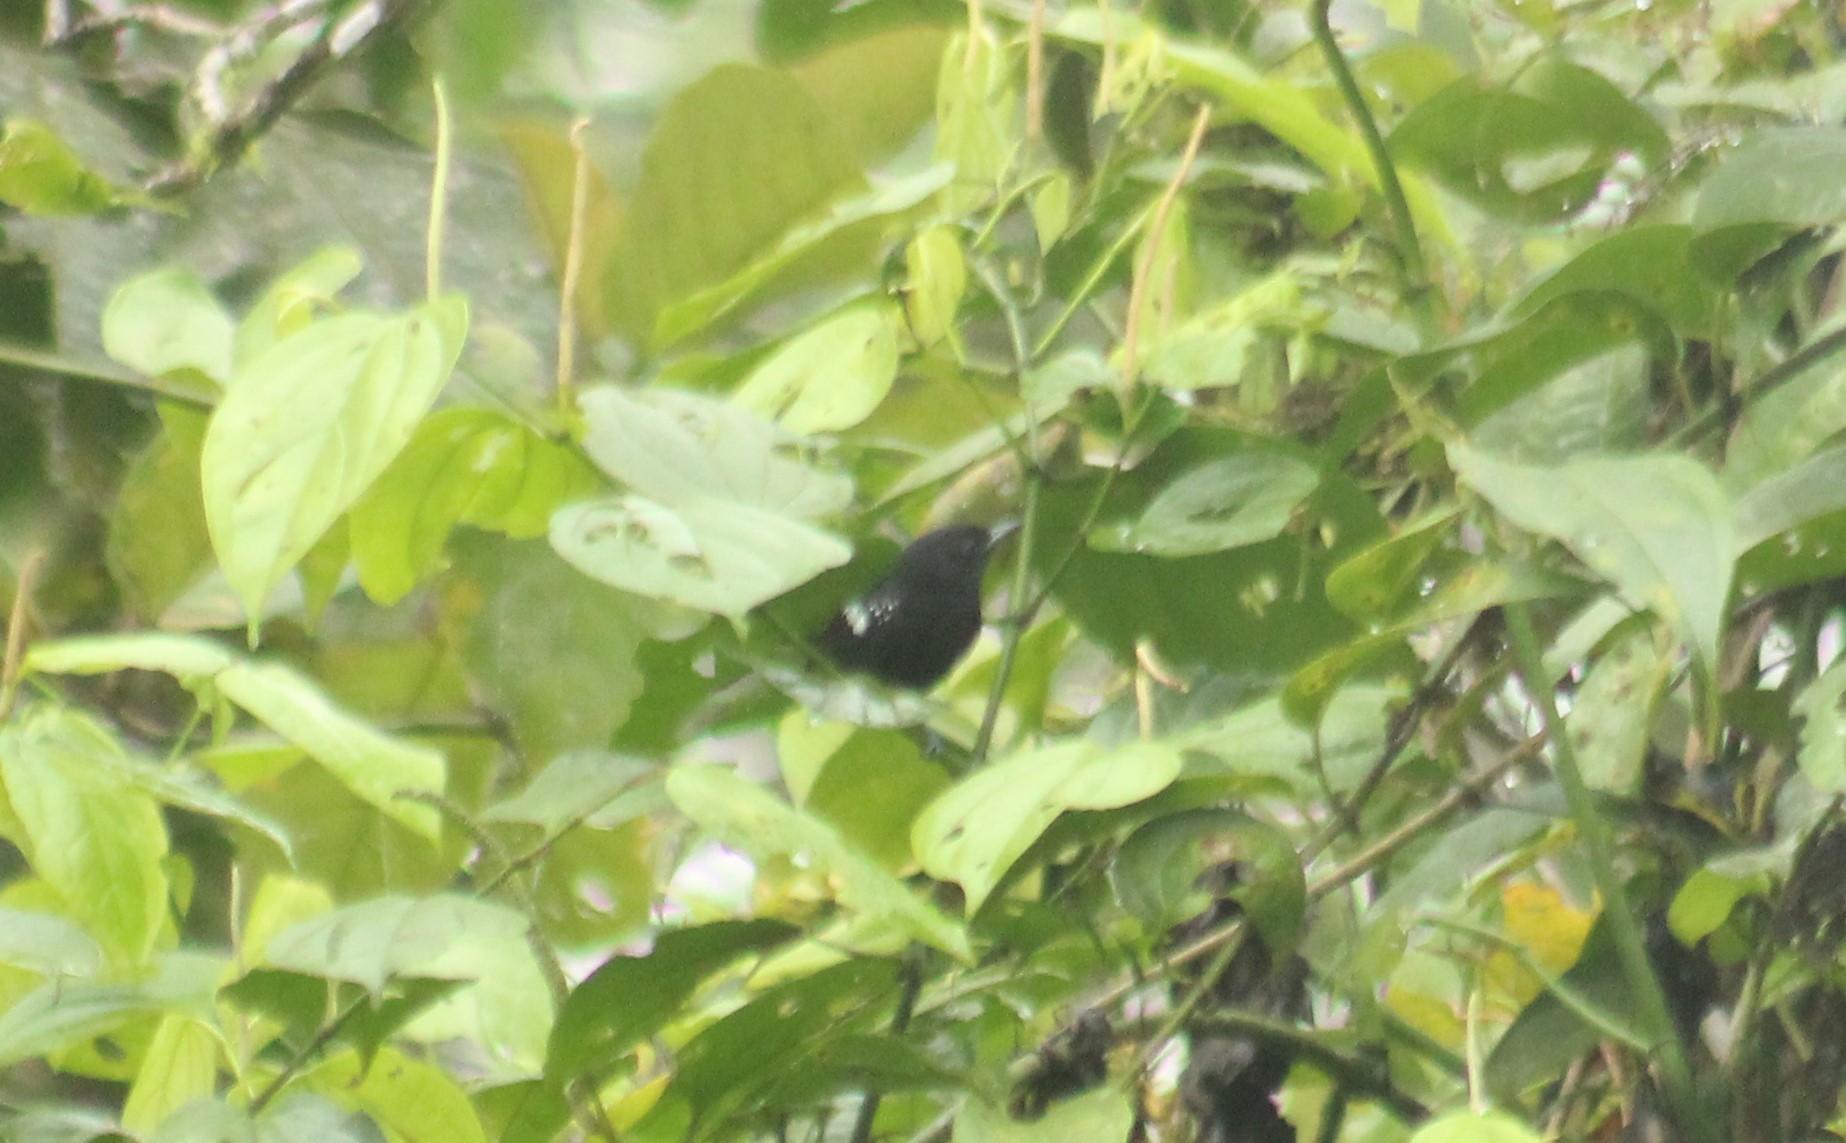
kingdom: Animalia
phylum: Chordata
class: Aves
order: Passeriformes
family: Thamnophilidae
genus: Microrhopias
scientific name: Microrhopias quixensis
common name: Dot-winged antwren
